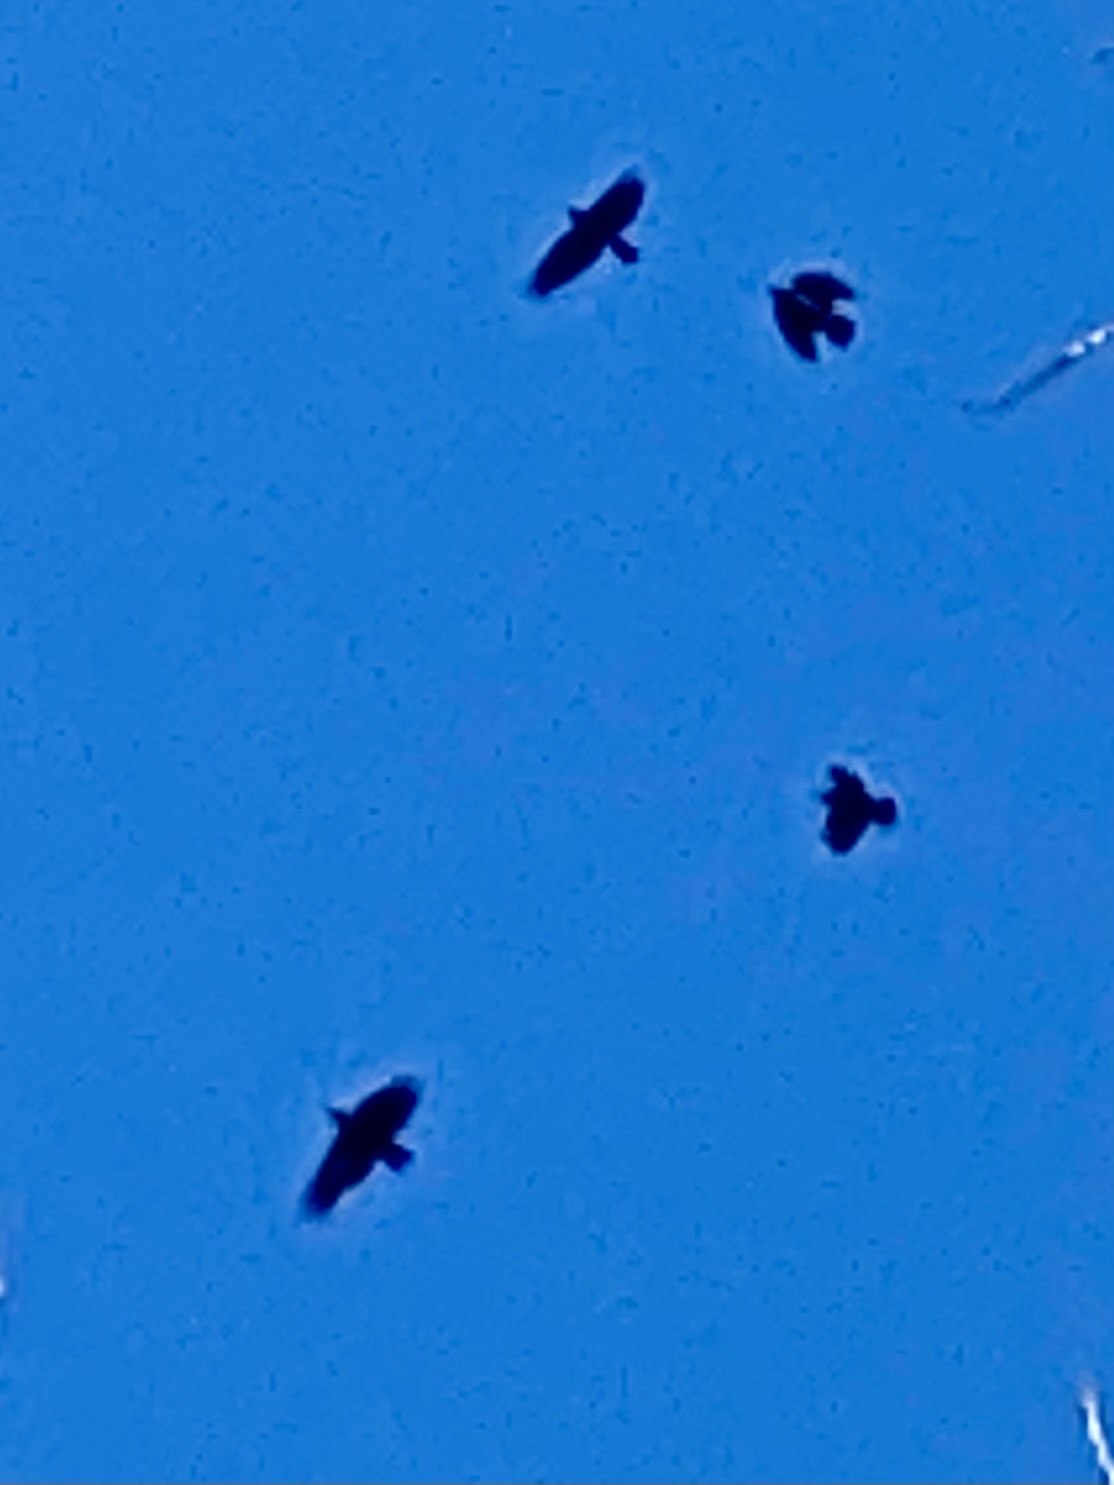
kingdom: Animalia
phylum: Chordata
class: Aves
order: Passeriformes
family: Corvidae
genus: Corvus
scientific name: Corvus ossifragus
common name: Fish crow
